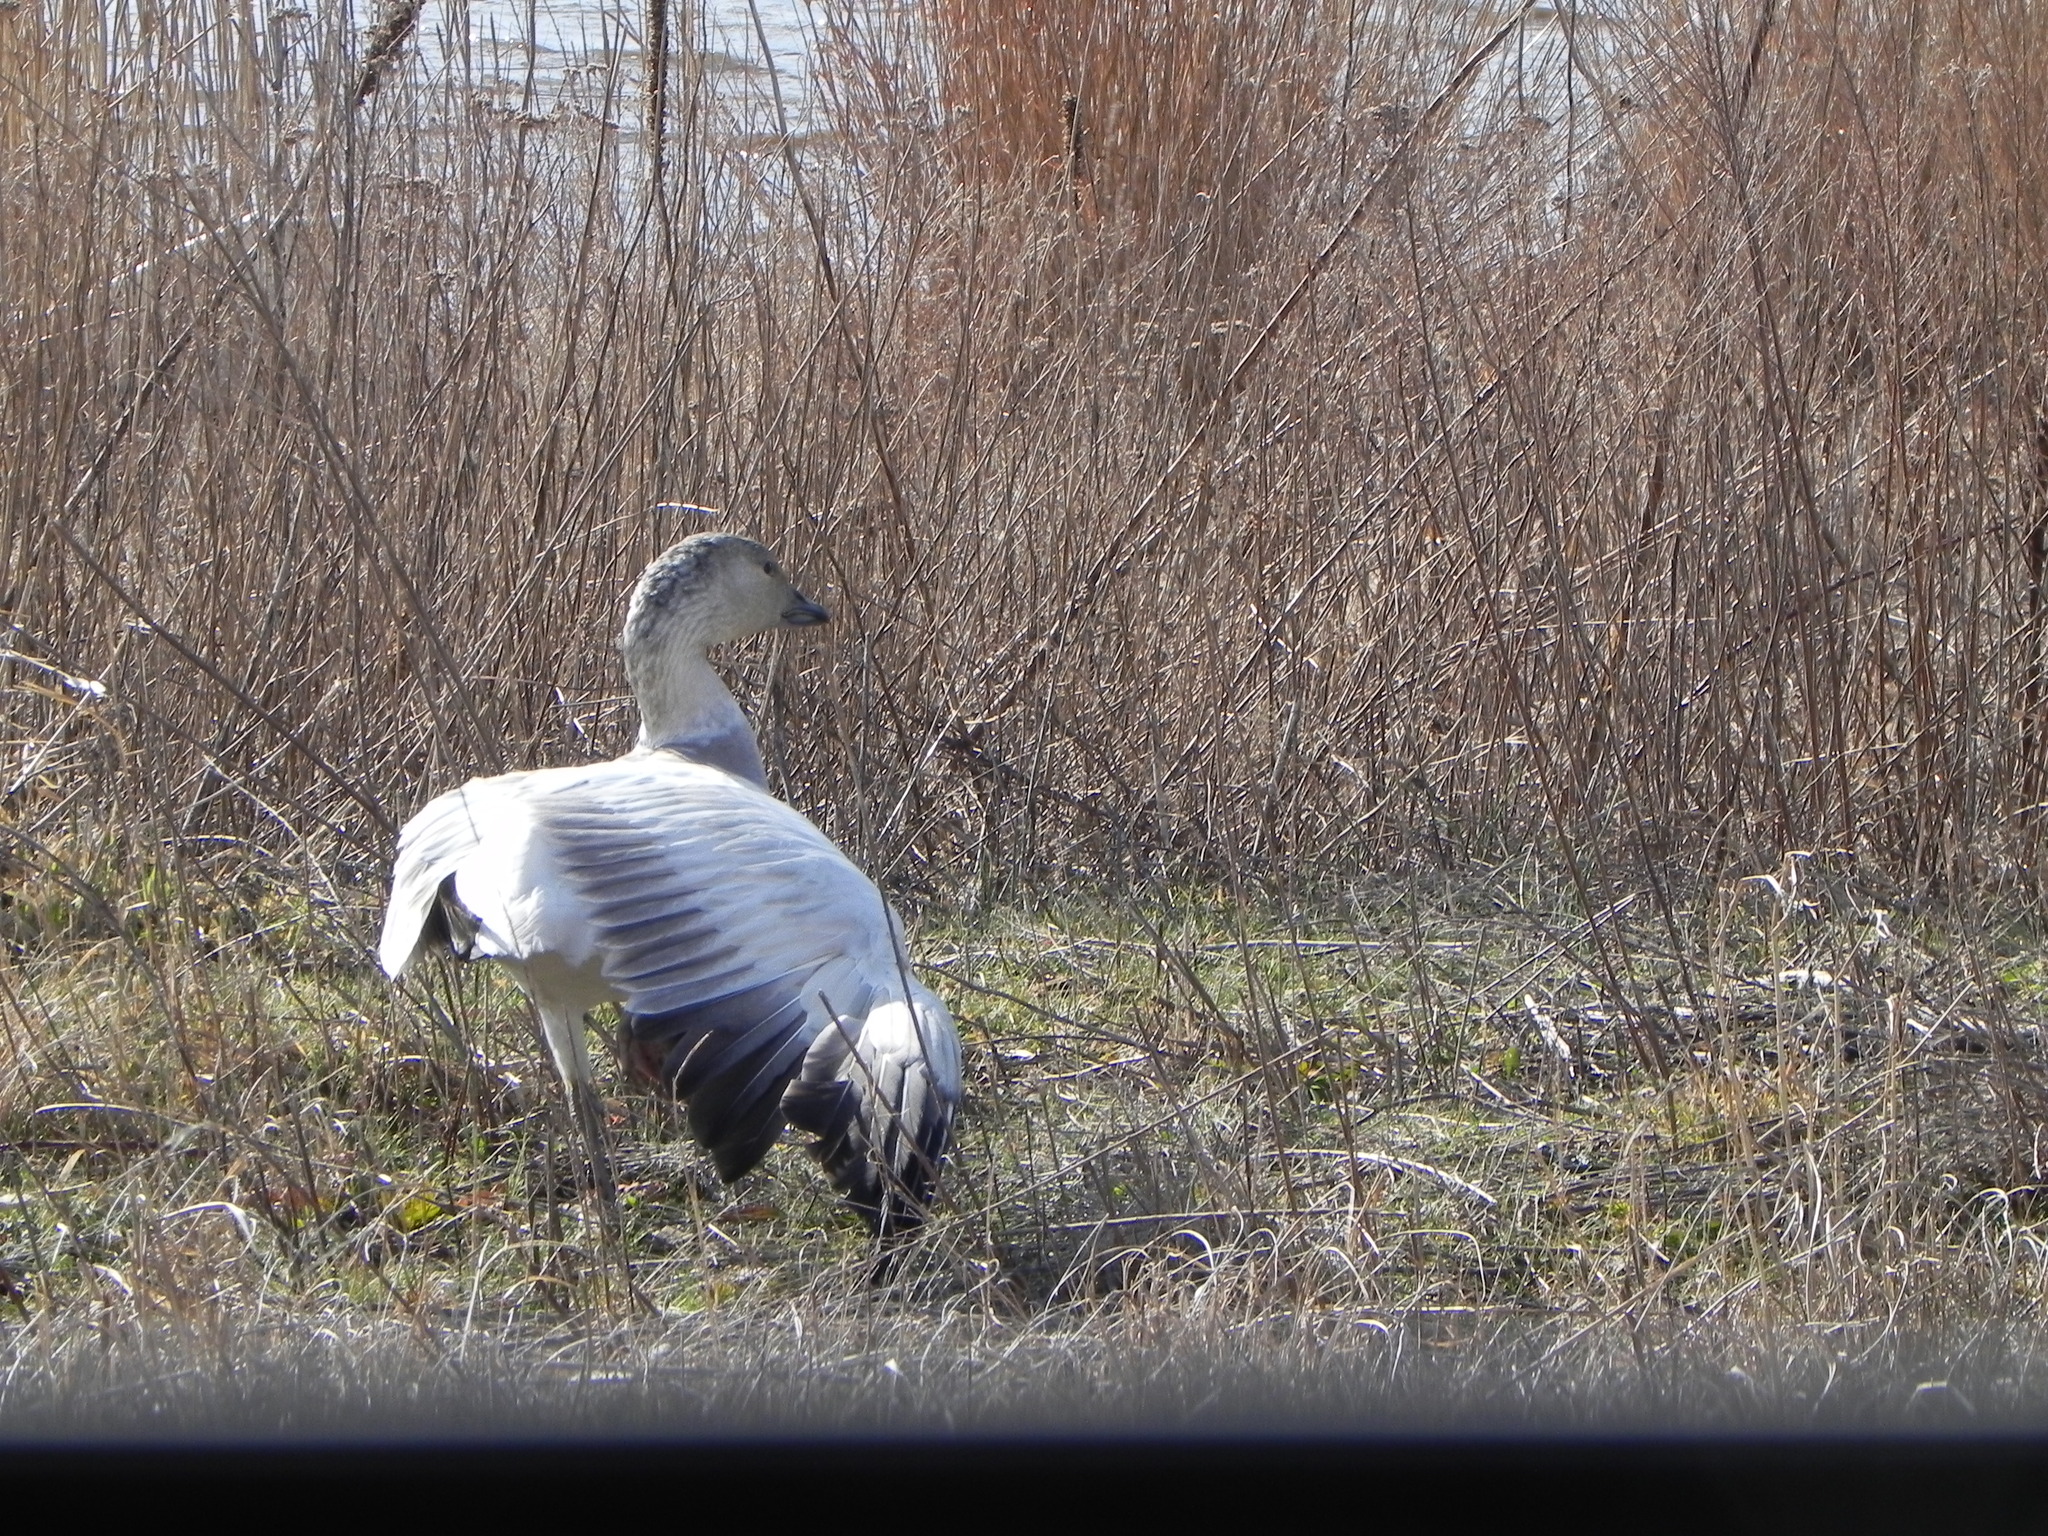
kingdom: Animalia
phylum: Chordata
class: Aves
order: Anseriformes
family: Anatidae
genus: Anser
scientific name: Anser caerulescens
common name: Snow goose
